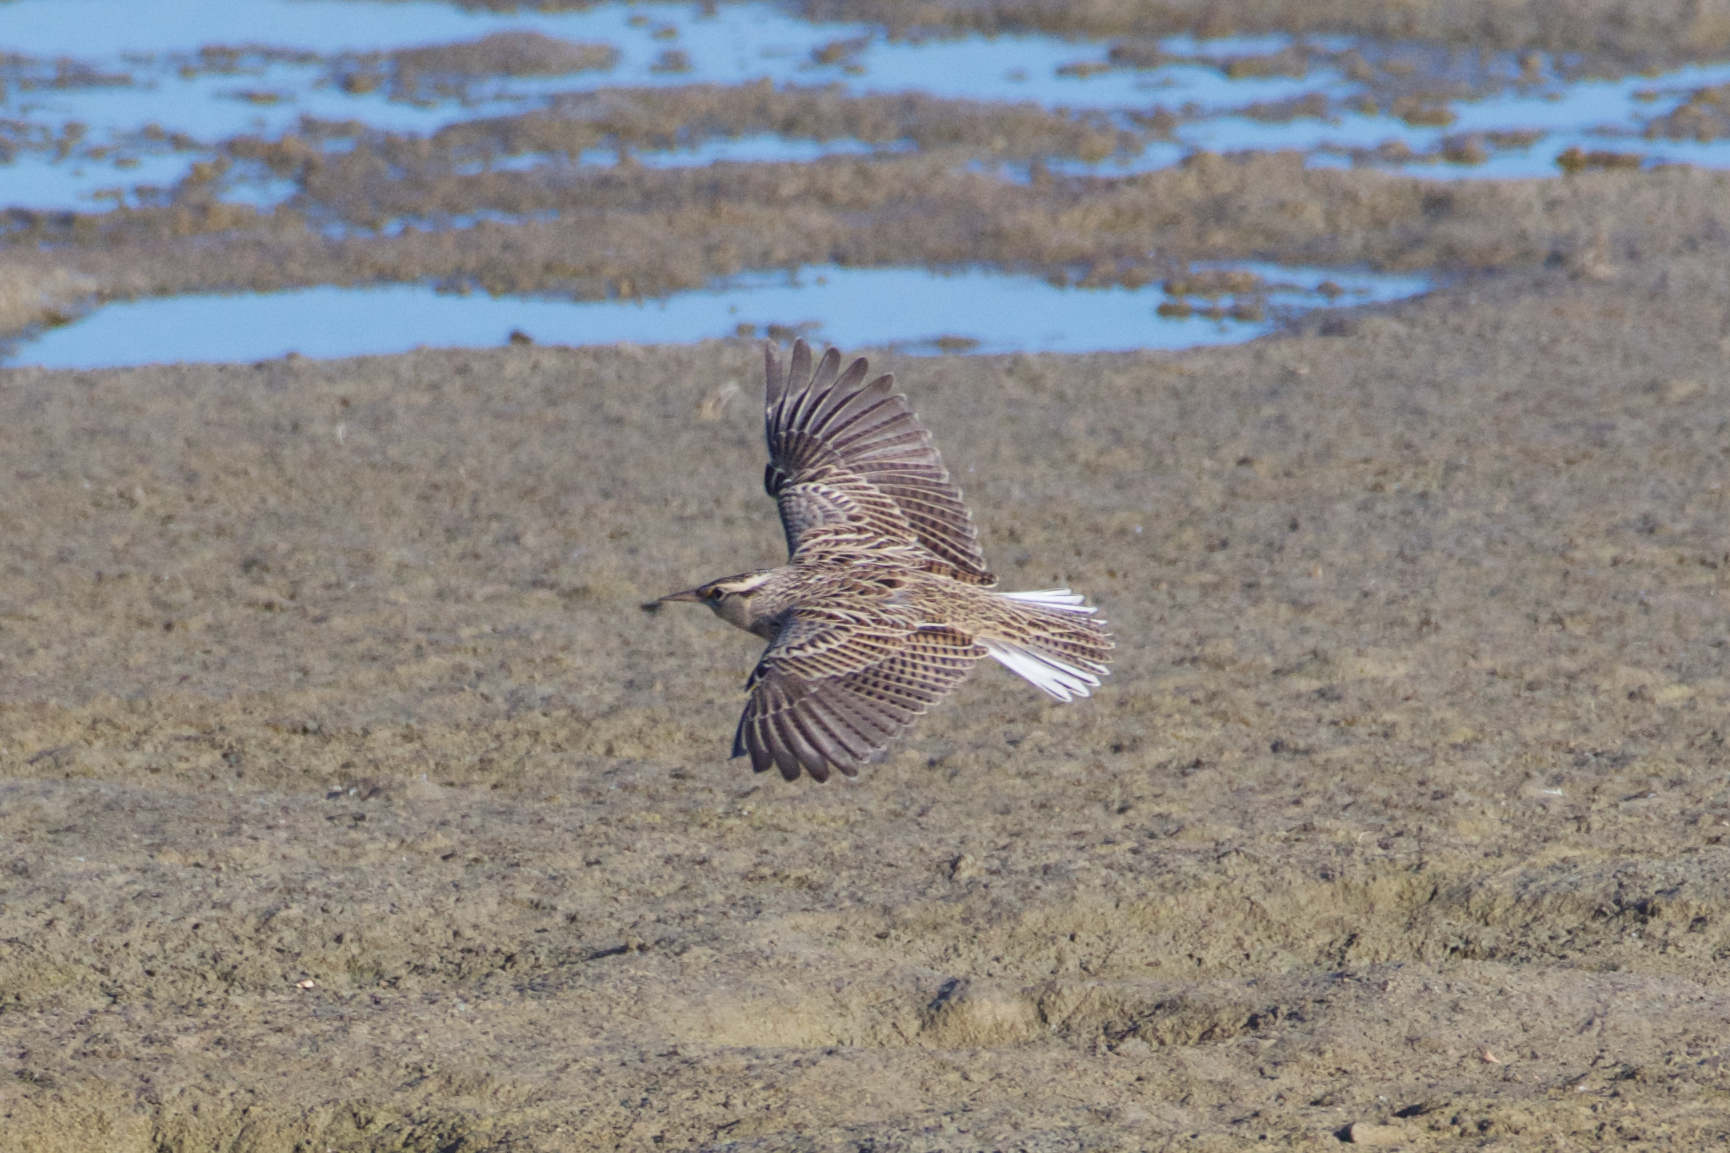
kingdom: Animalia
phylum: Chordata
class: Aves
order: Passeriformes
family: Icteridae
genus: Sturnella
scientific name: Sturnella neglecta
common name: Western meadowlark
